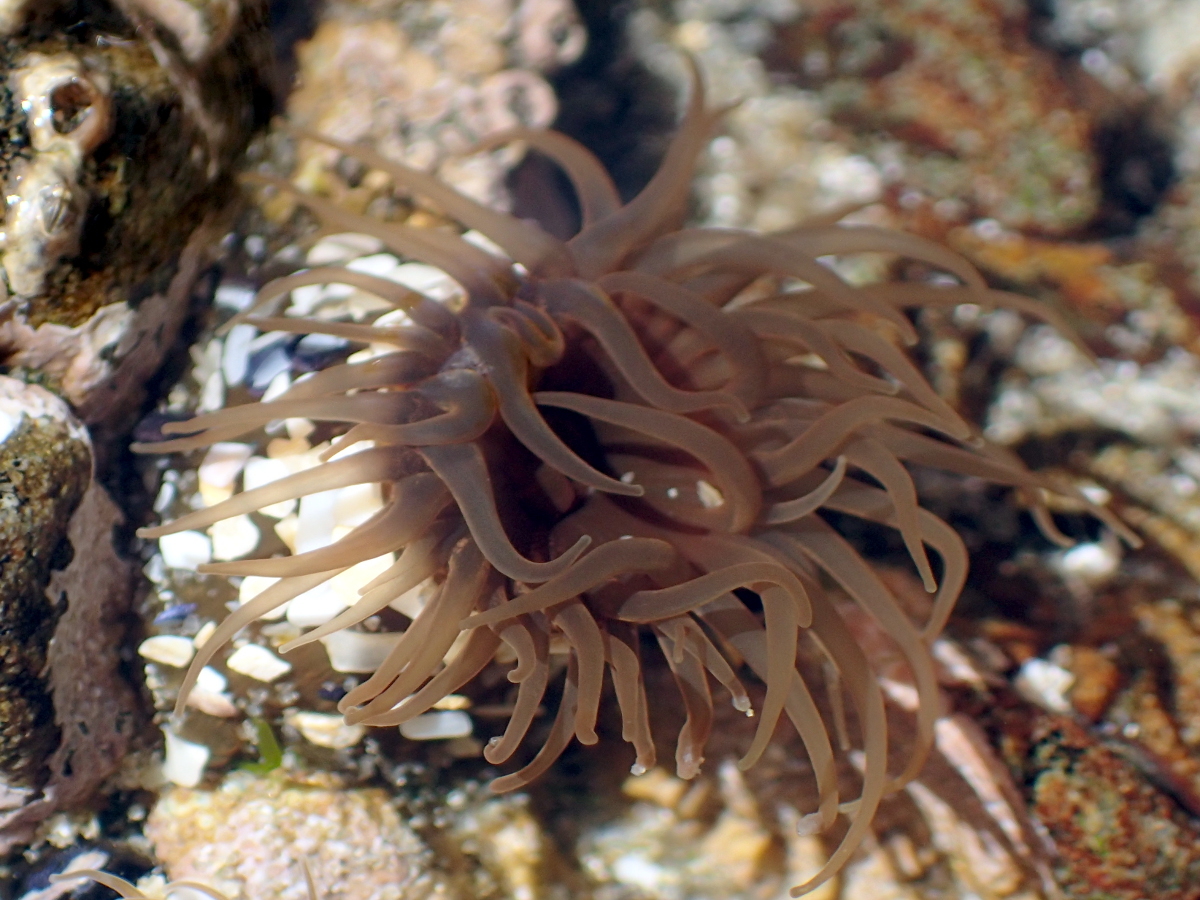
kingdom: Animalia
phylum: Cnidaria
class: Anthozoa
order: Actiniaria
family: Actiniidae
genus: Isactinia
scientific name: Isactinia olivacea
